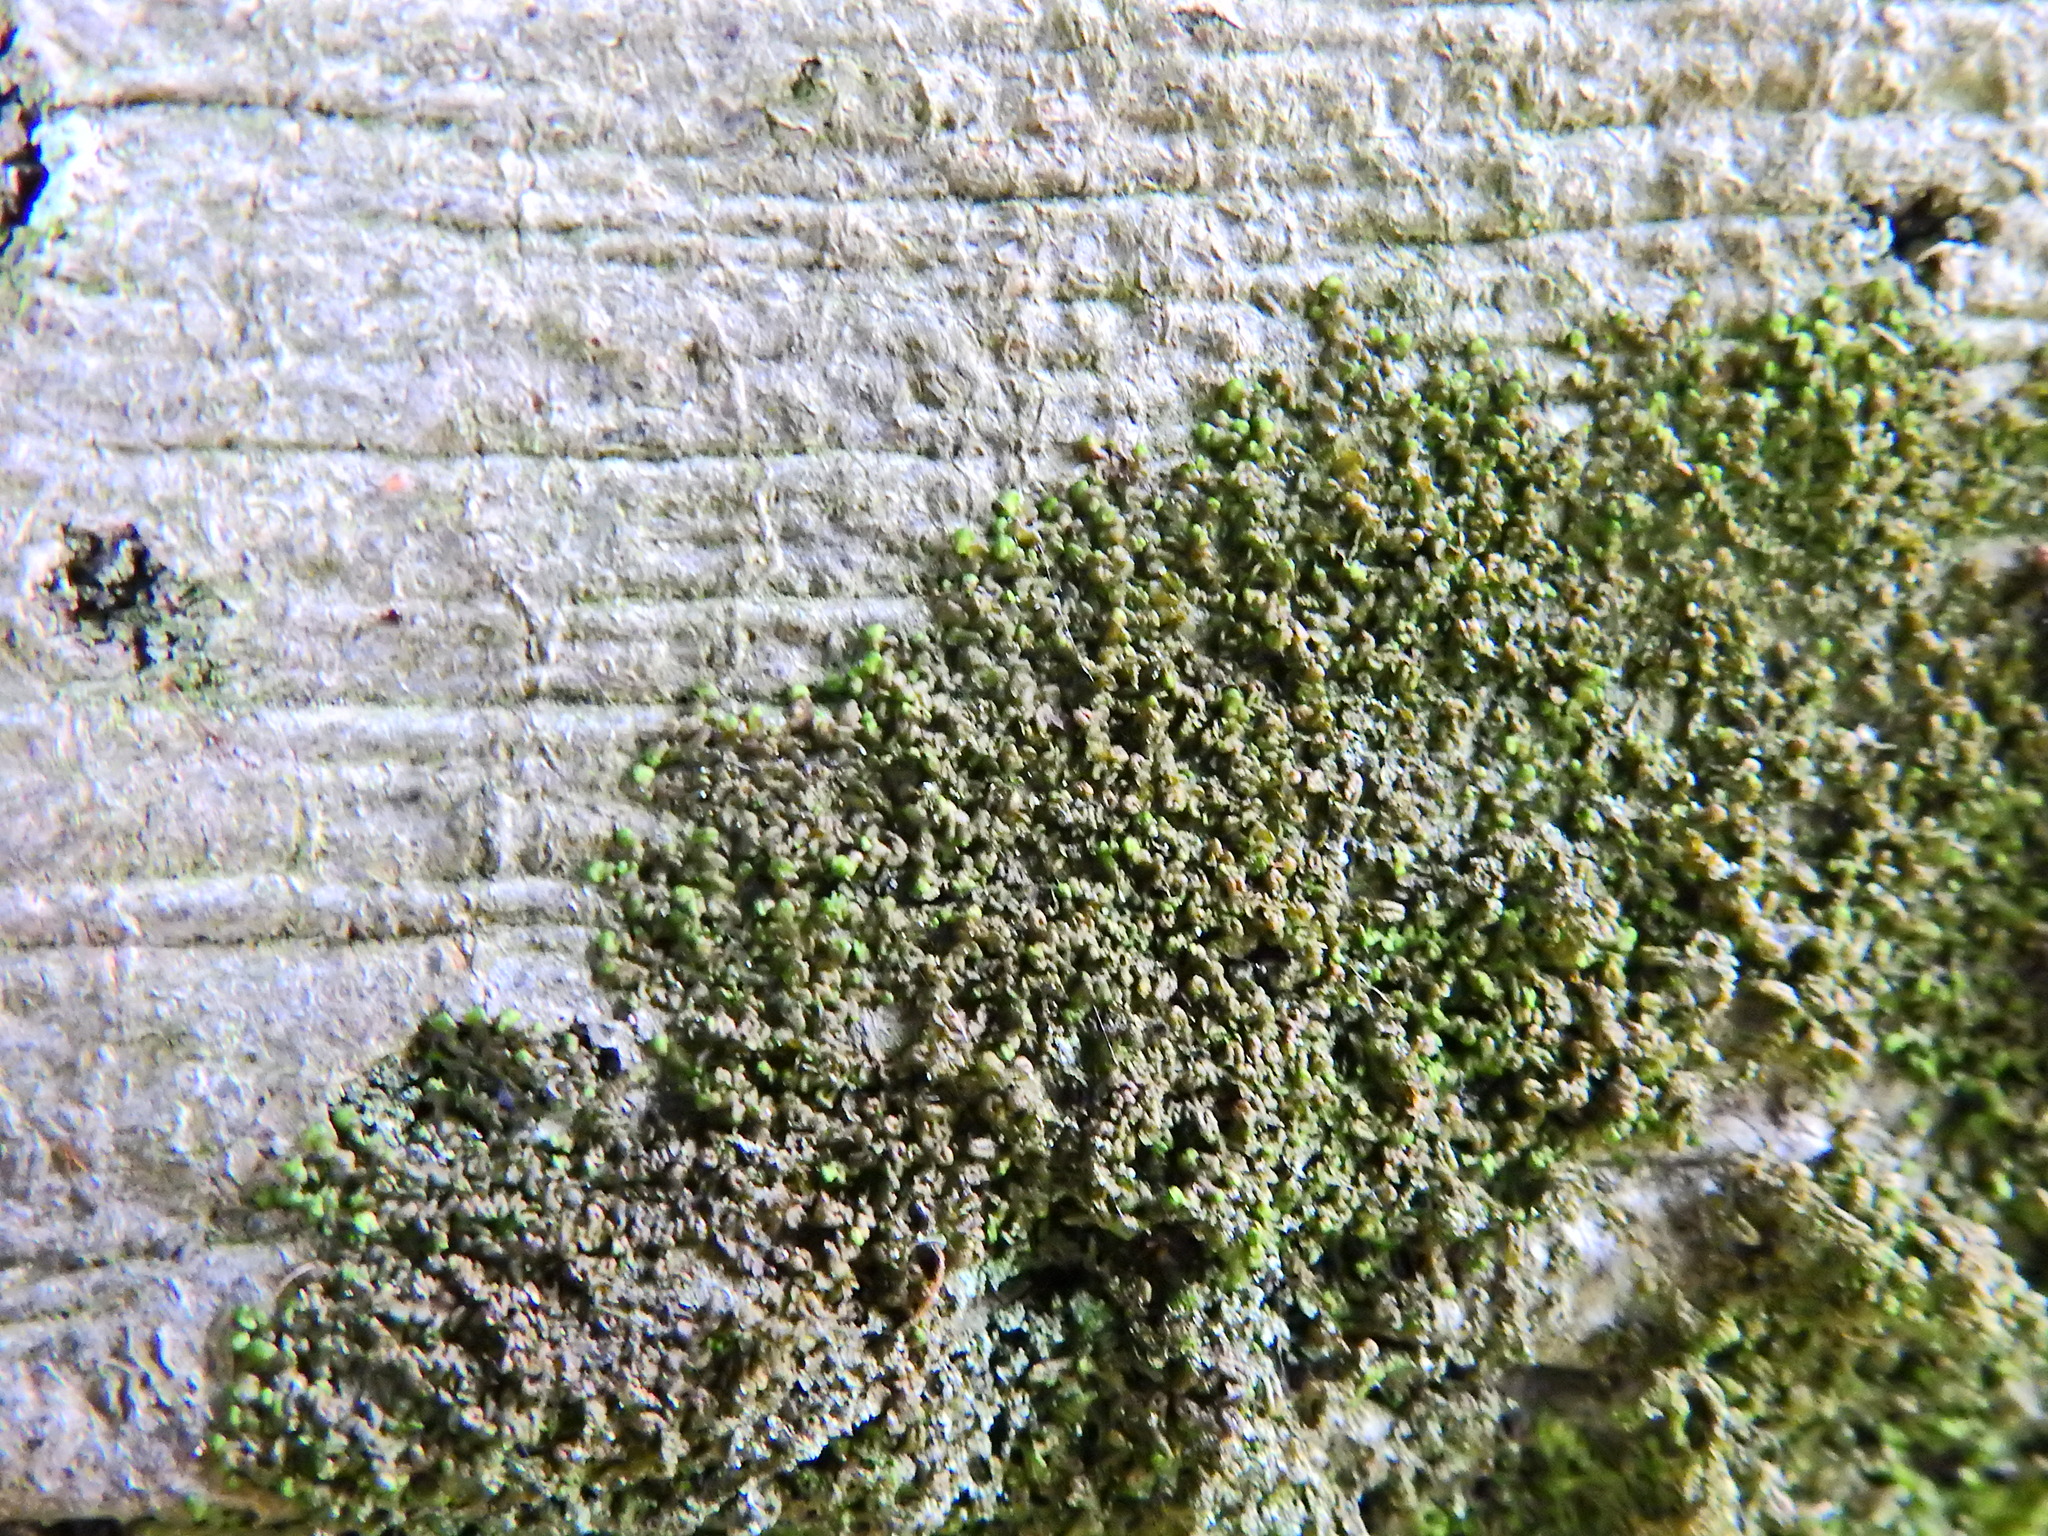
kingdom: Plantae
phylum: Marchantiophyta
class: Jungermanniopsida
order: Porellales
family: Frullaniaceae
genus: Frullania
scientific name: Frullania dilatata
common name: Dilated scalewort
